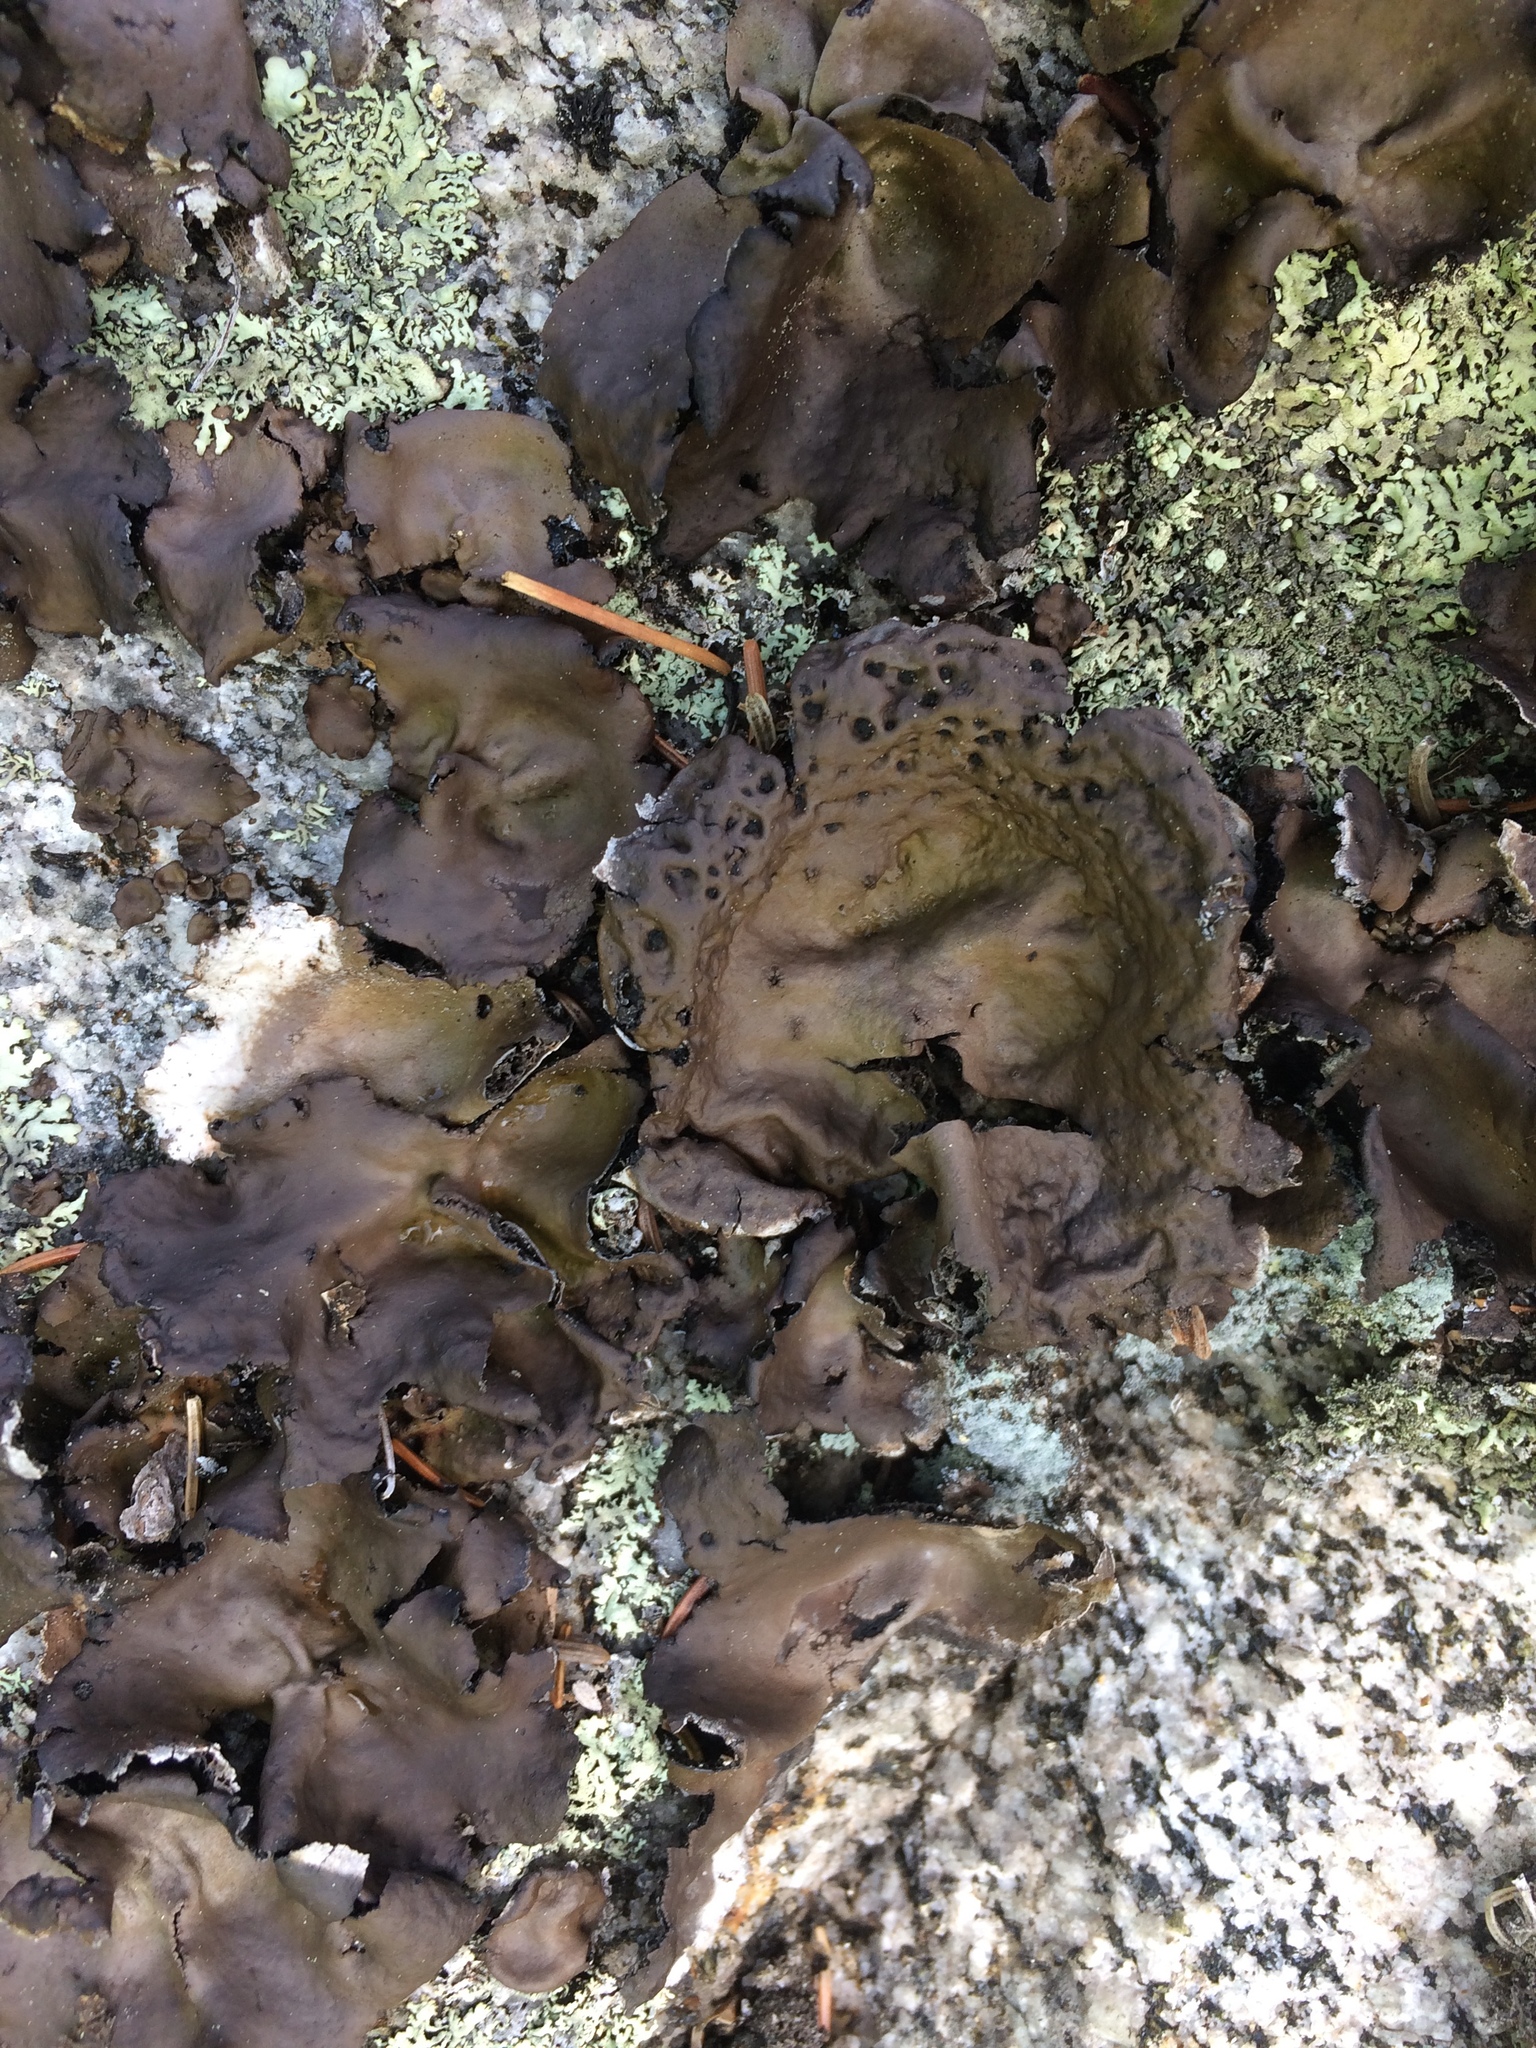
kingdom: Fungi
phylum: Ascomycota
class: Lecanoromycetes
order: Umbilicariales
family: Umbilicariaceae
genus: Umbilicaria
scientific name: Umbilicaria muhlenbergii
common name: Lesser rocktripe
